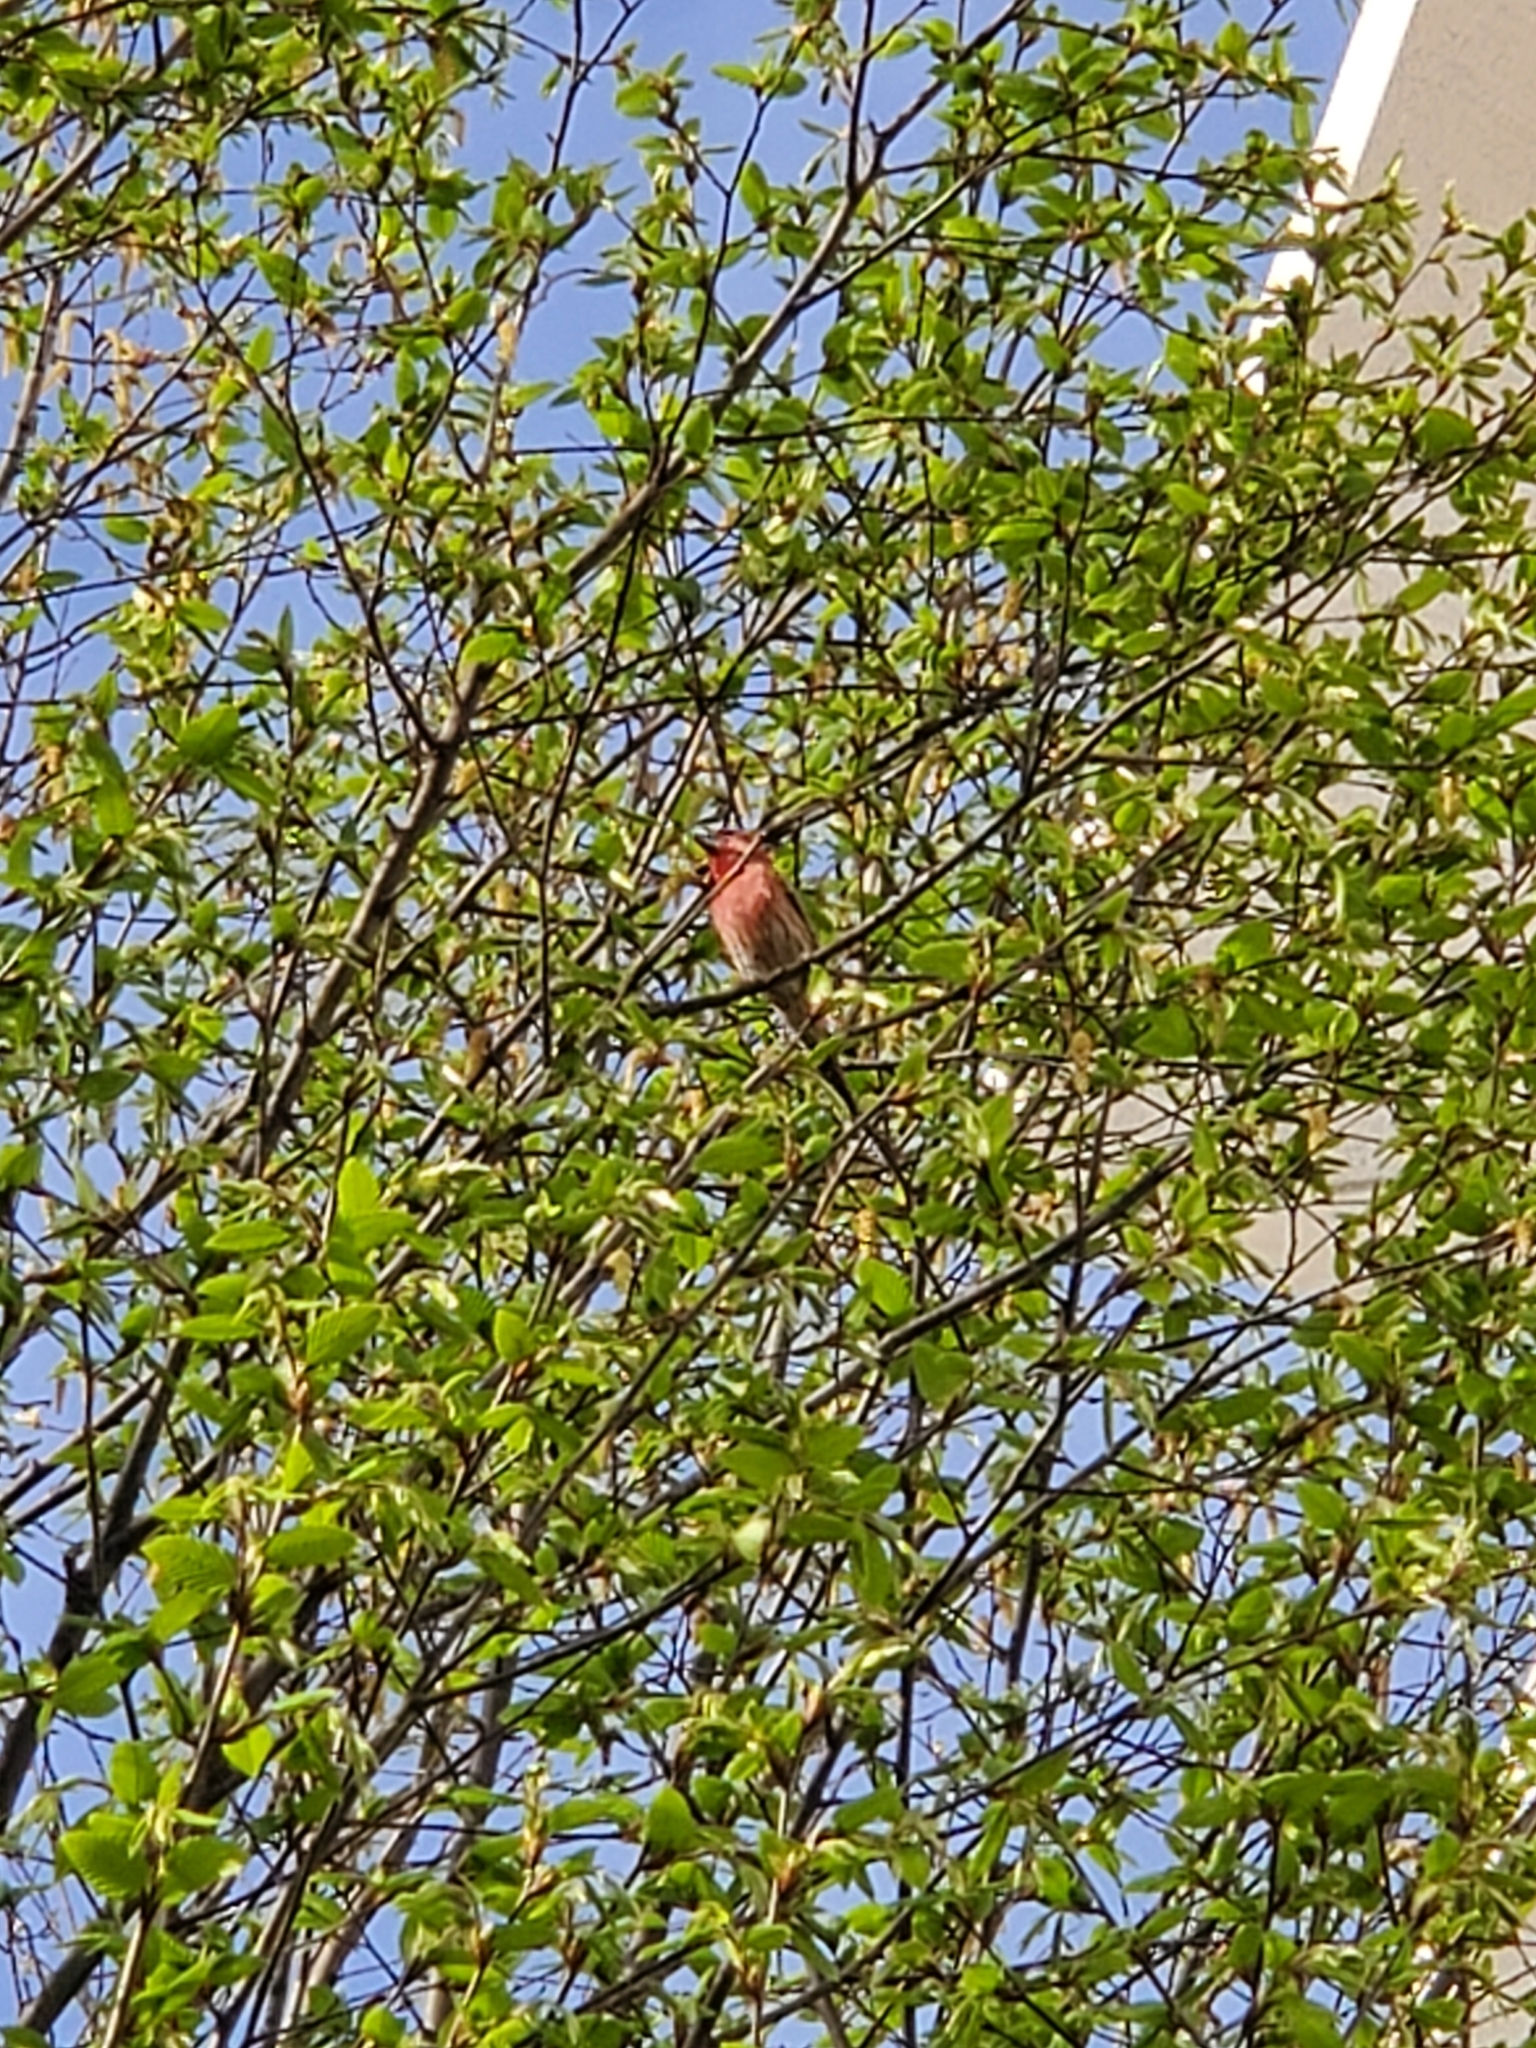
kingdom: Animalia
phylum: Chordata
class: Aves
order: Passeriformes
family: Fringillidae
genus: Haemorhous
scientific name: Haemorhous mexicanus
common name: House finch
